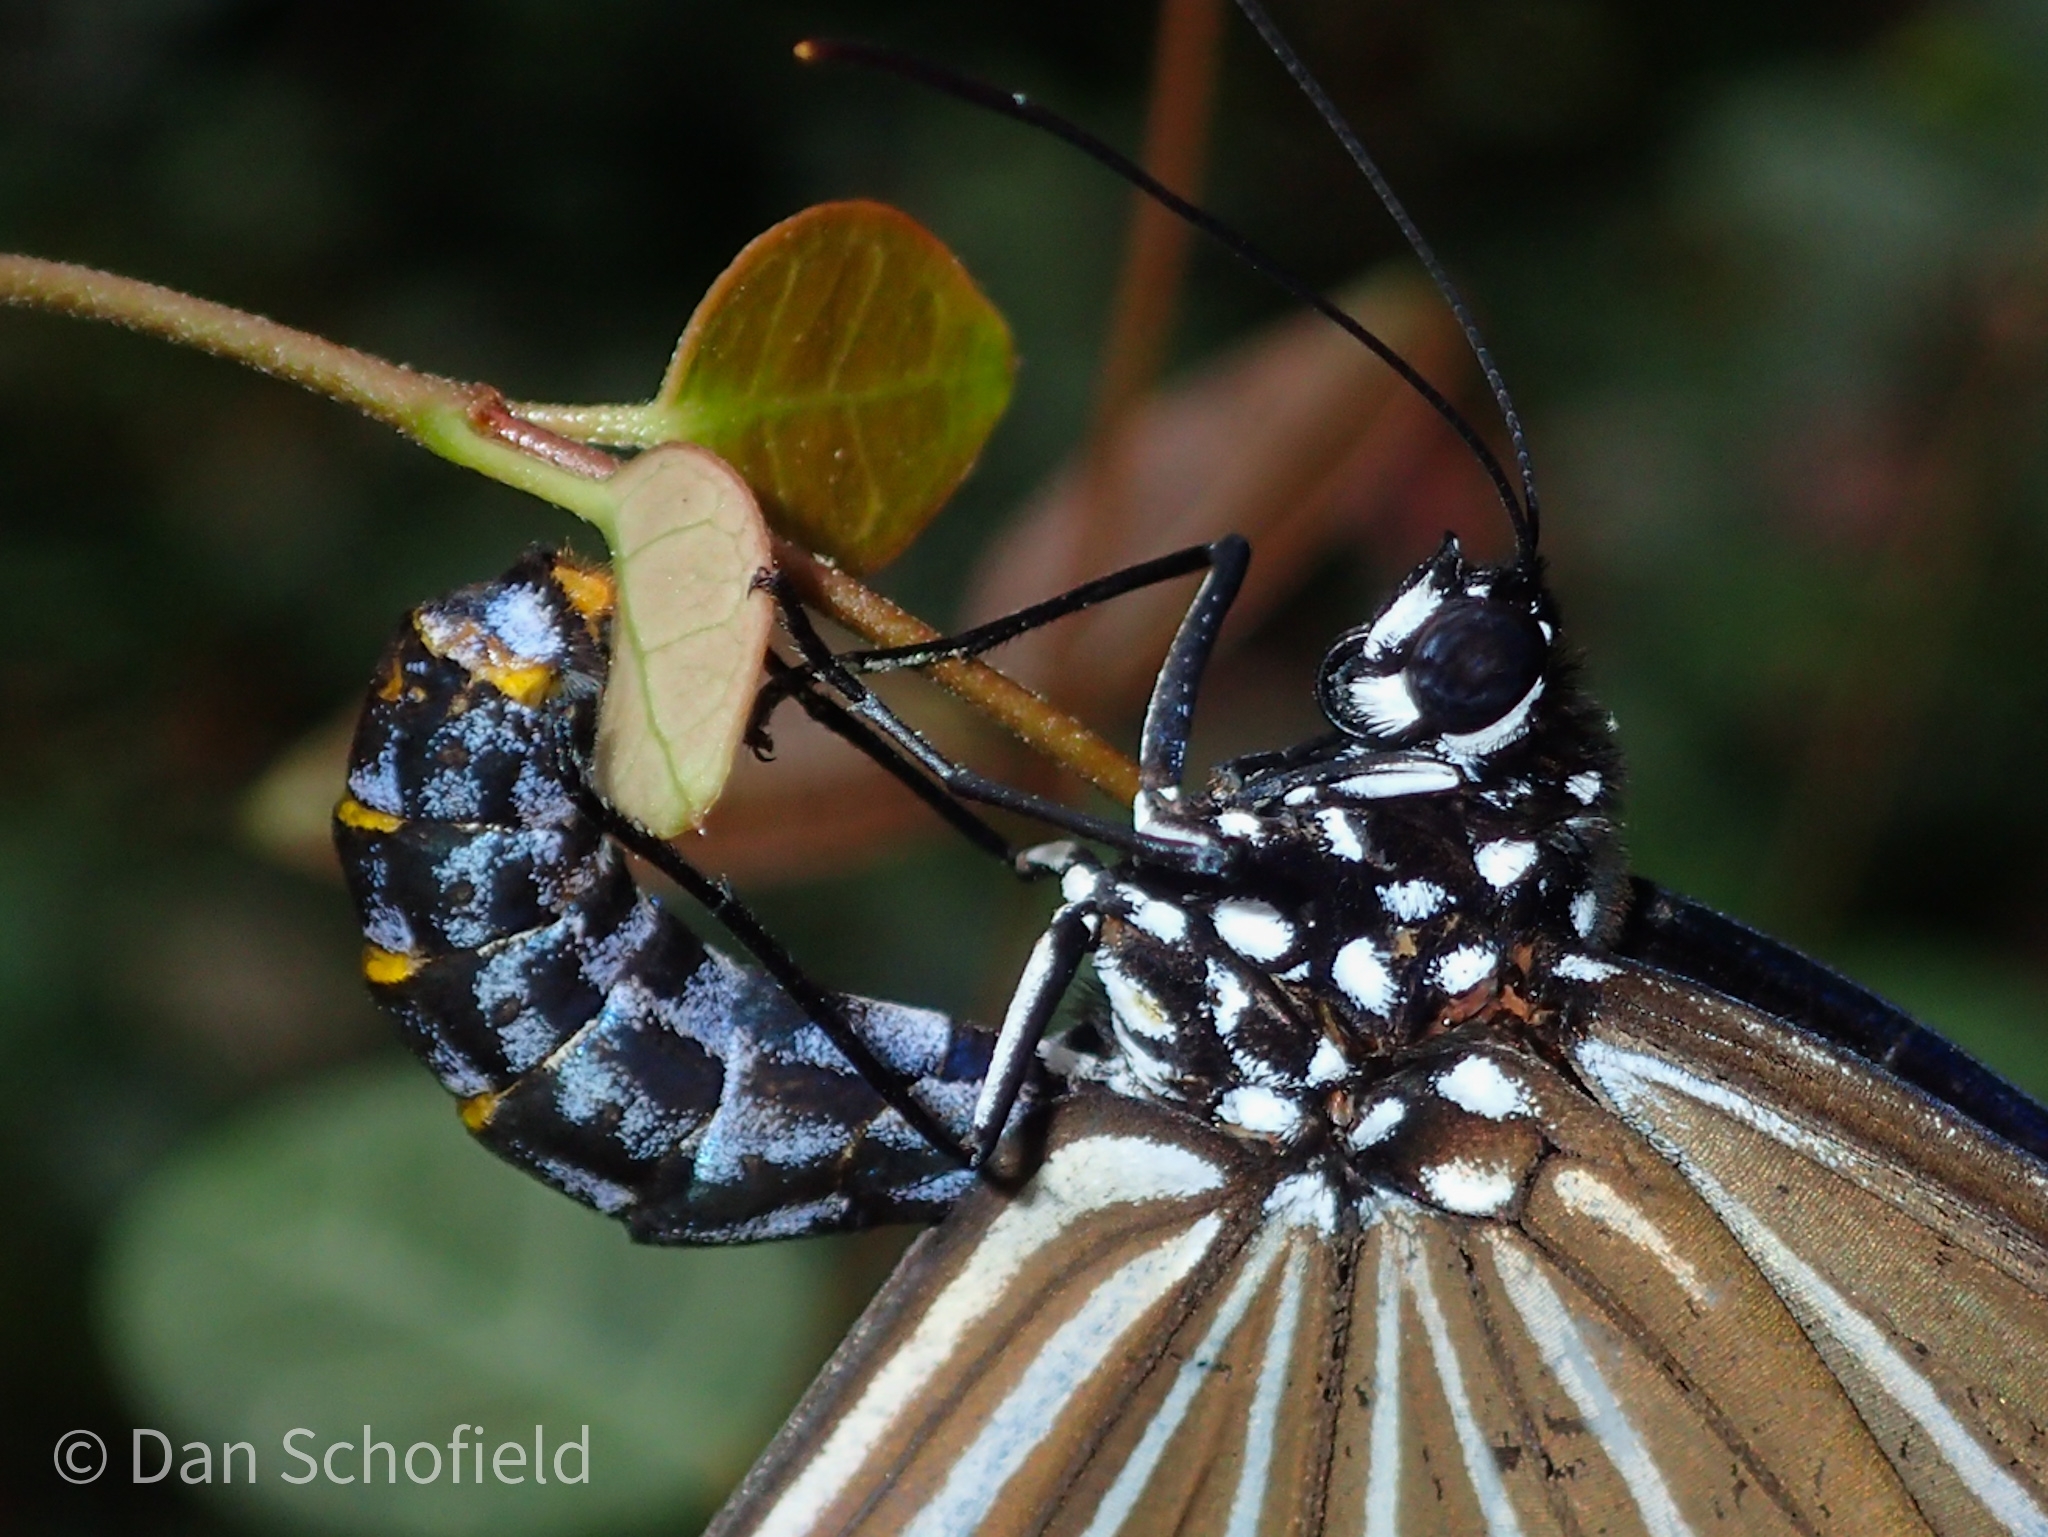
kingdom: Animalia
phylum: Arthropoda
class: Insecta
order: Lepidoptera
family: Nymphalidae
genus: Euploea
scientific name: Euploea mulciber
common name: Striped blue crow butterfly
